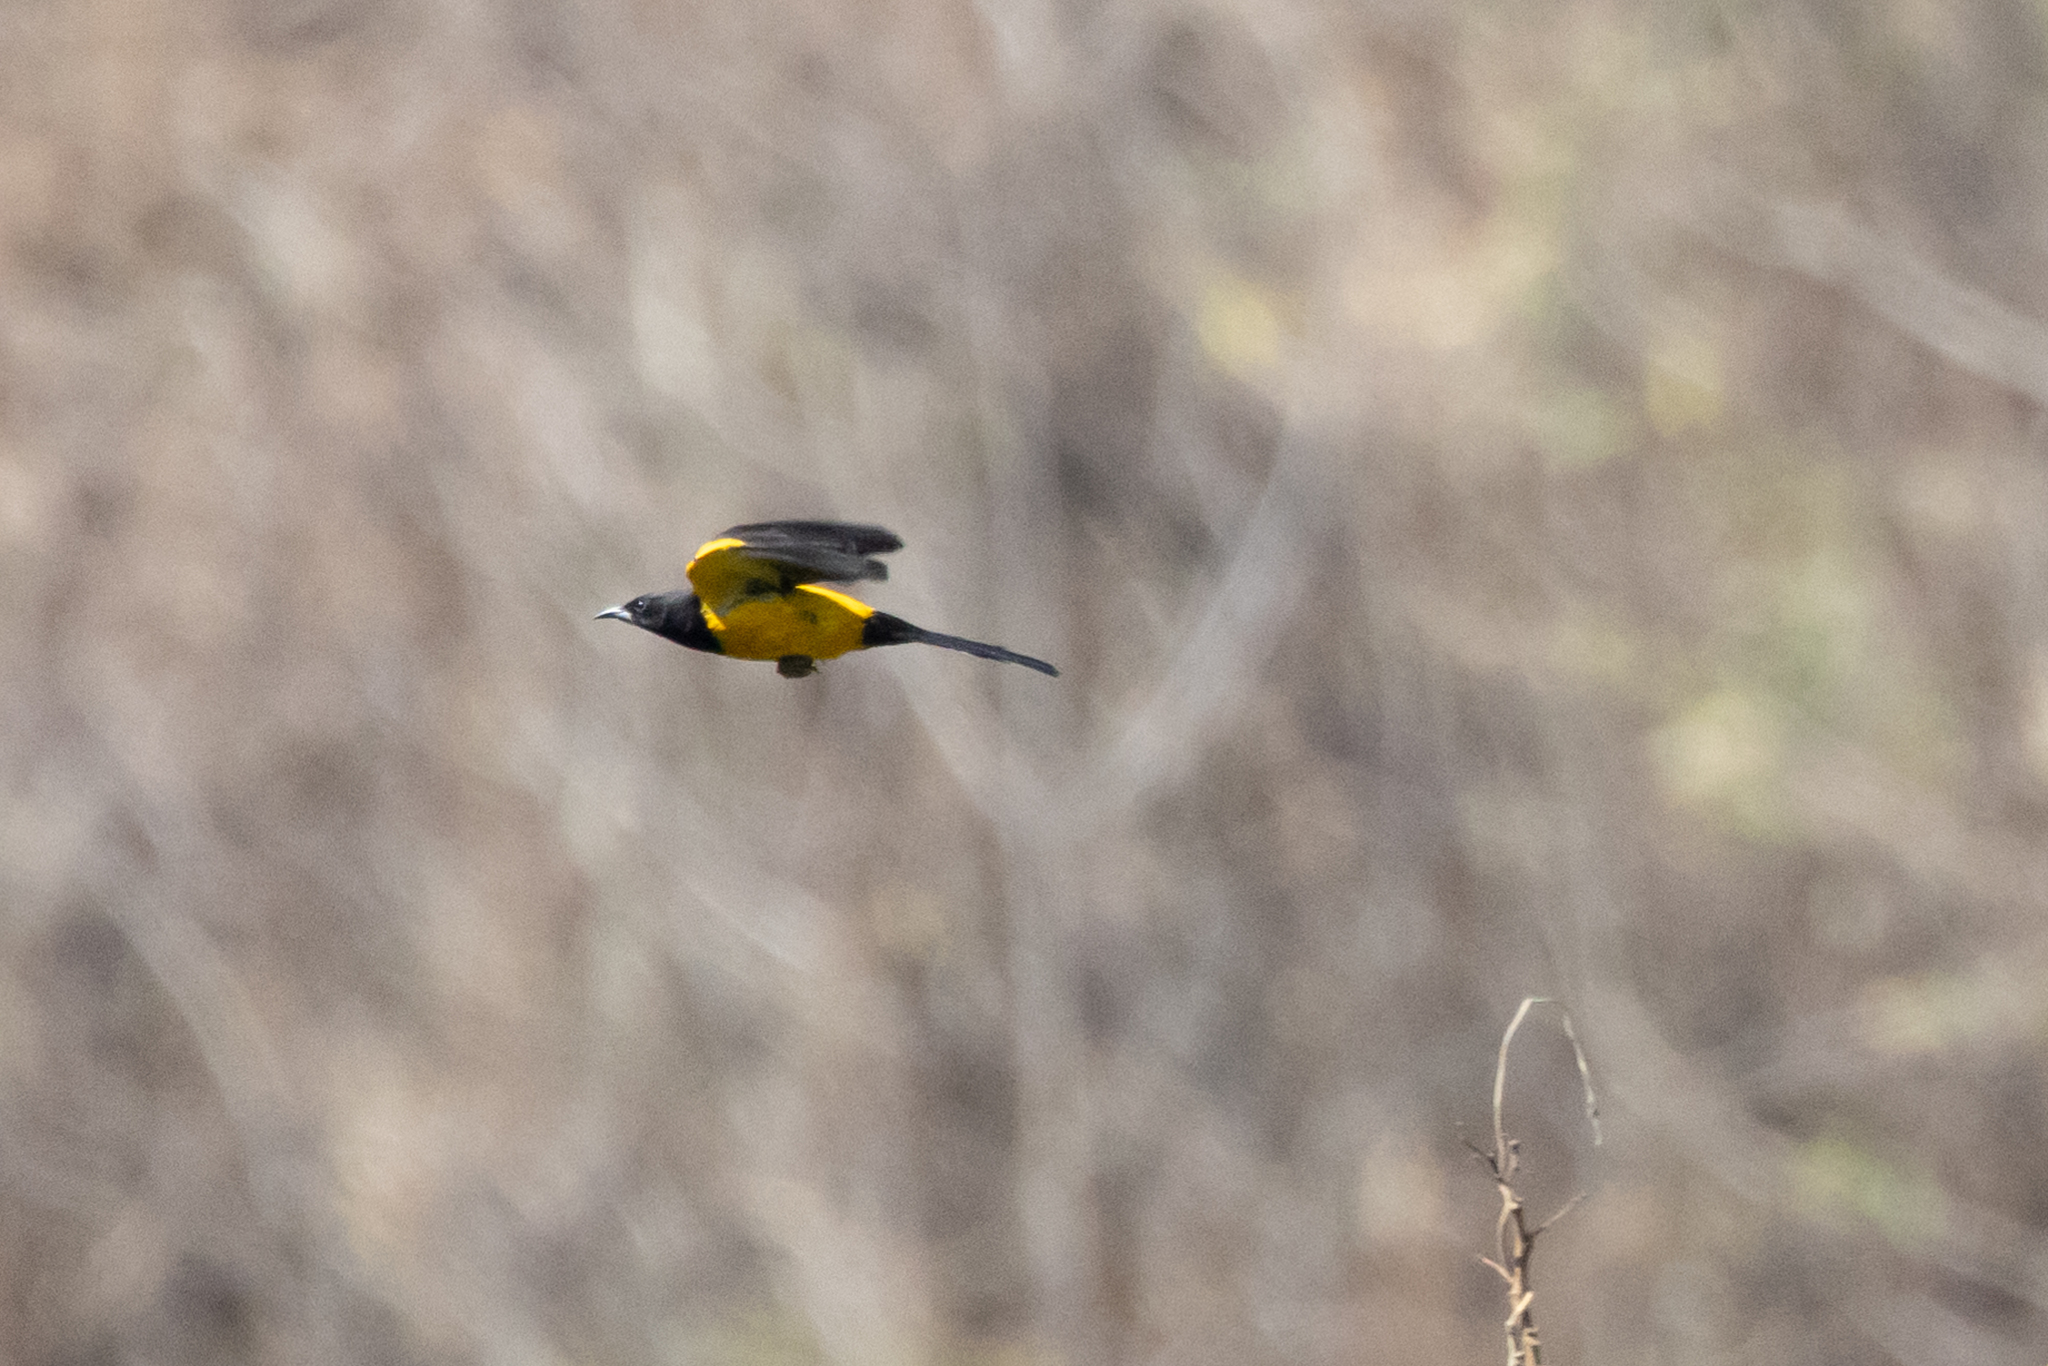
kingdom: Animalia
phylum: Chordata
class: Aves
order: Passeriformes
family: Icteridae
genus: Icterus
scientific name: Icterus wagleri
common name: Black-vented oriole
